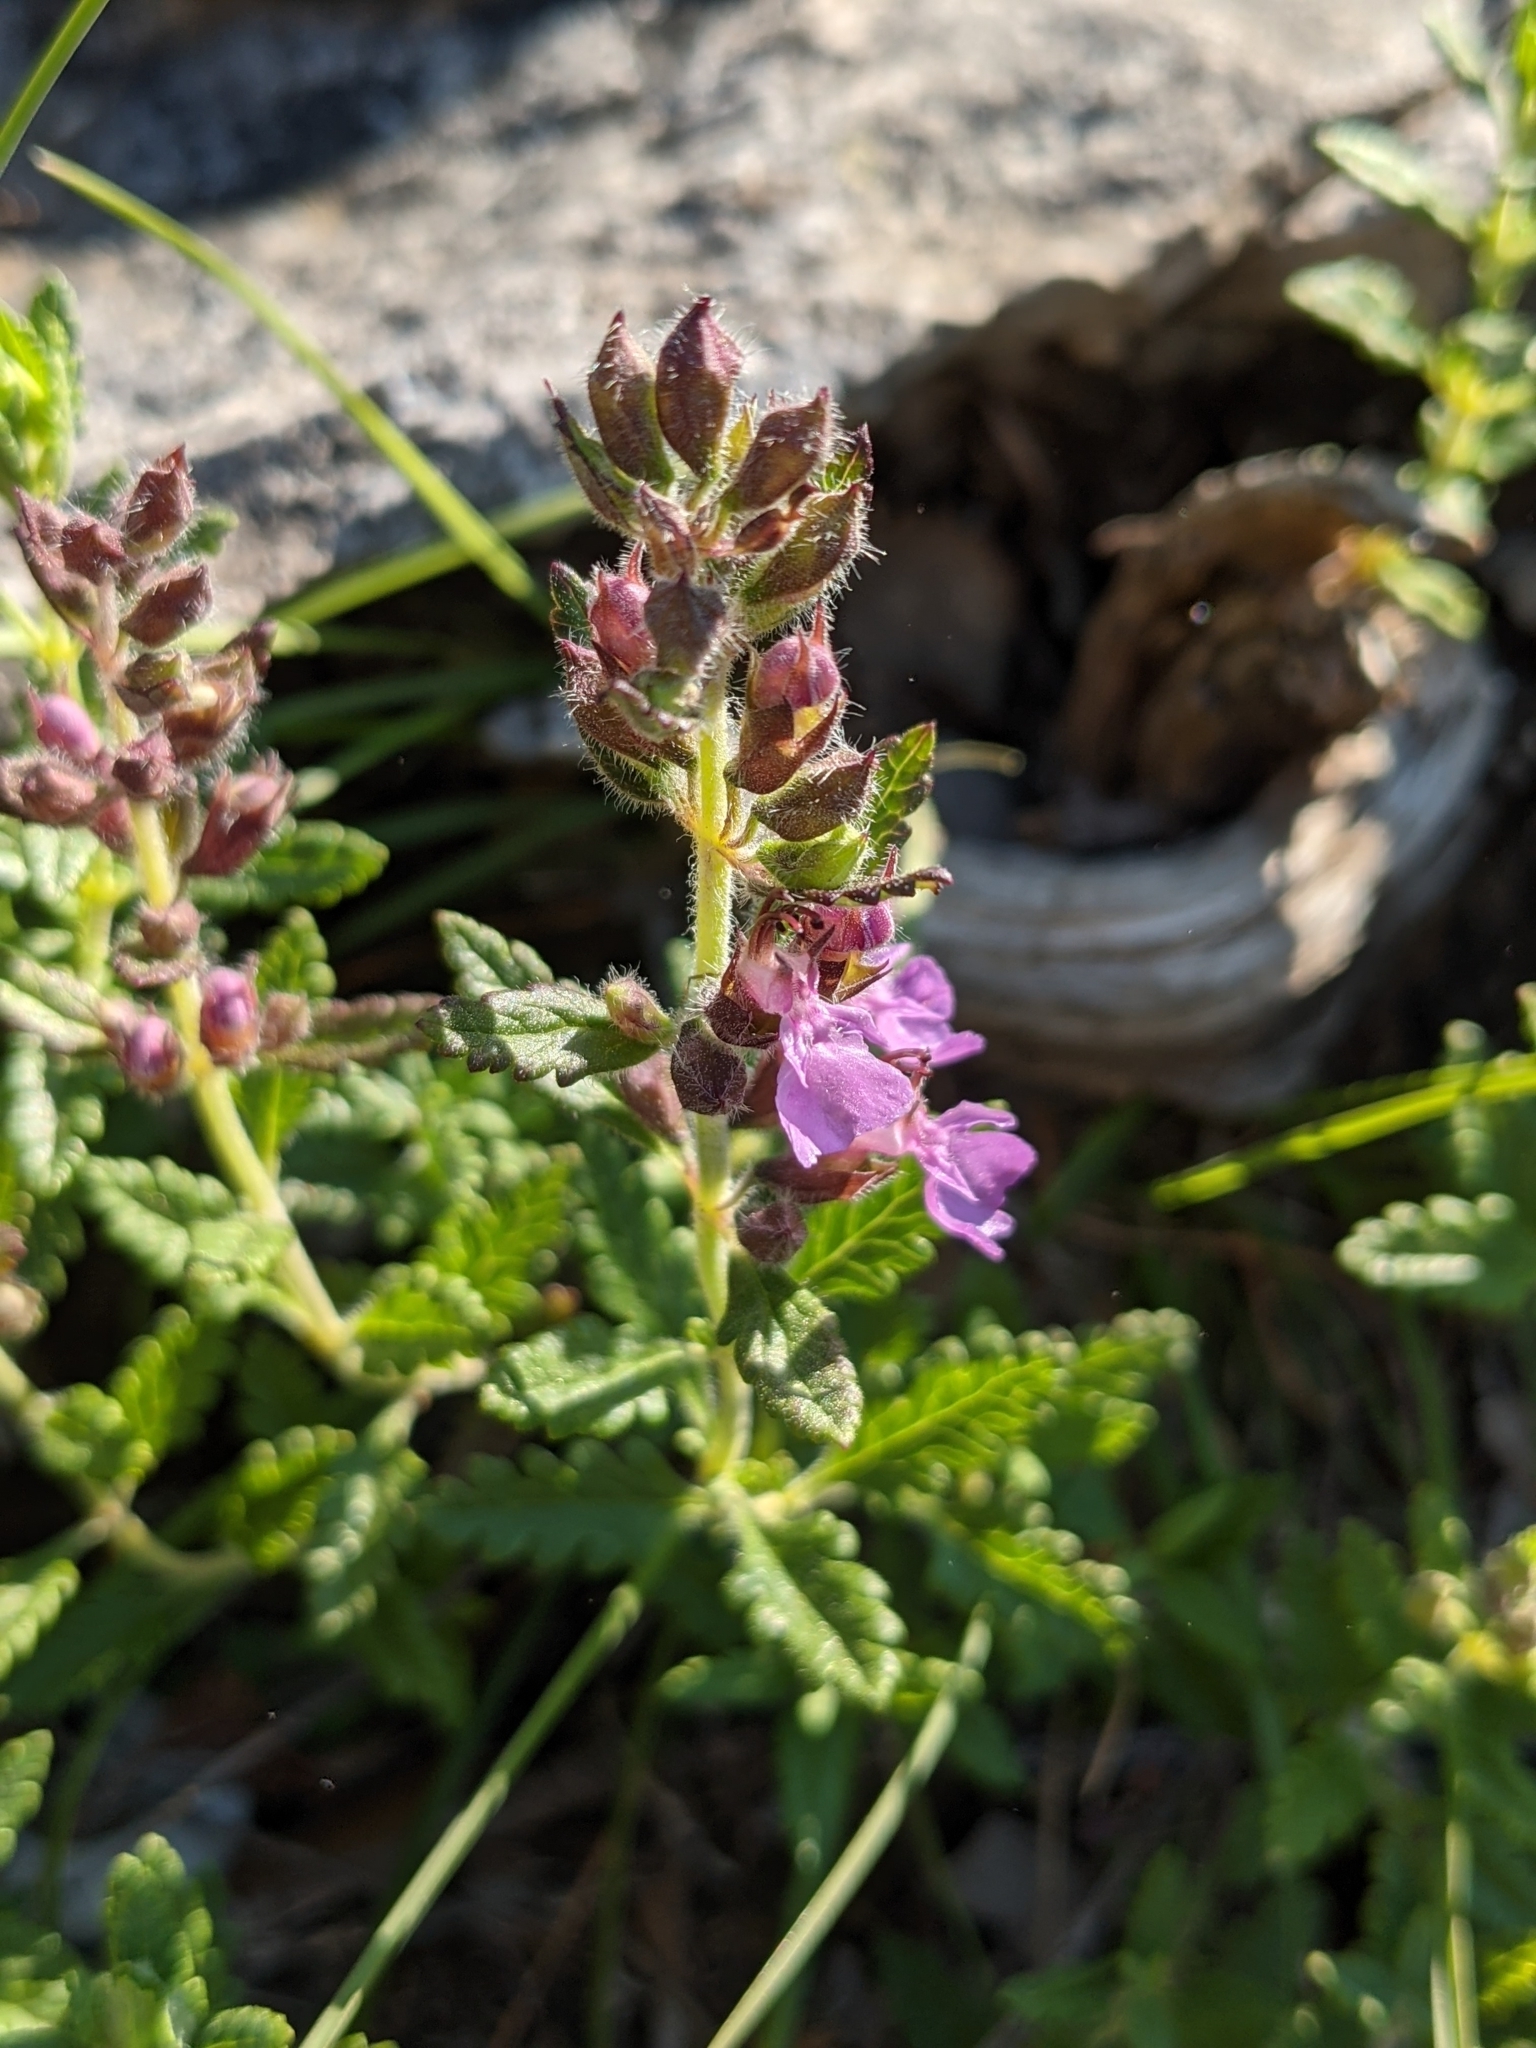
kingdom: Plantae
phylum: Tracheophyta
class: Magnoliopsida
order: Lamiales
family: Lamiaceae
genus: Teucrium
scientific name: Teucrium chamaedrys
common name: Wall germander
